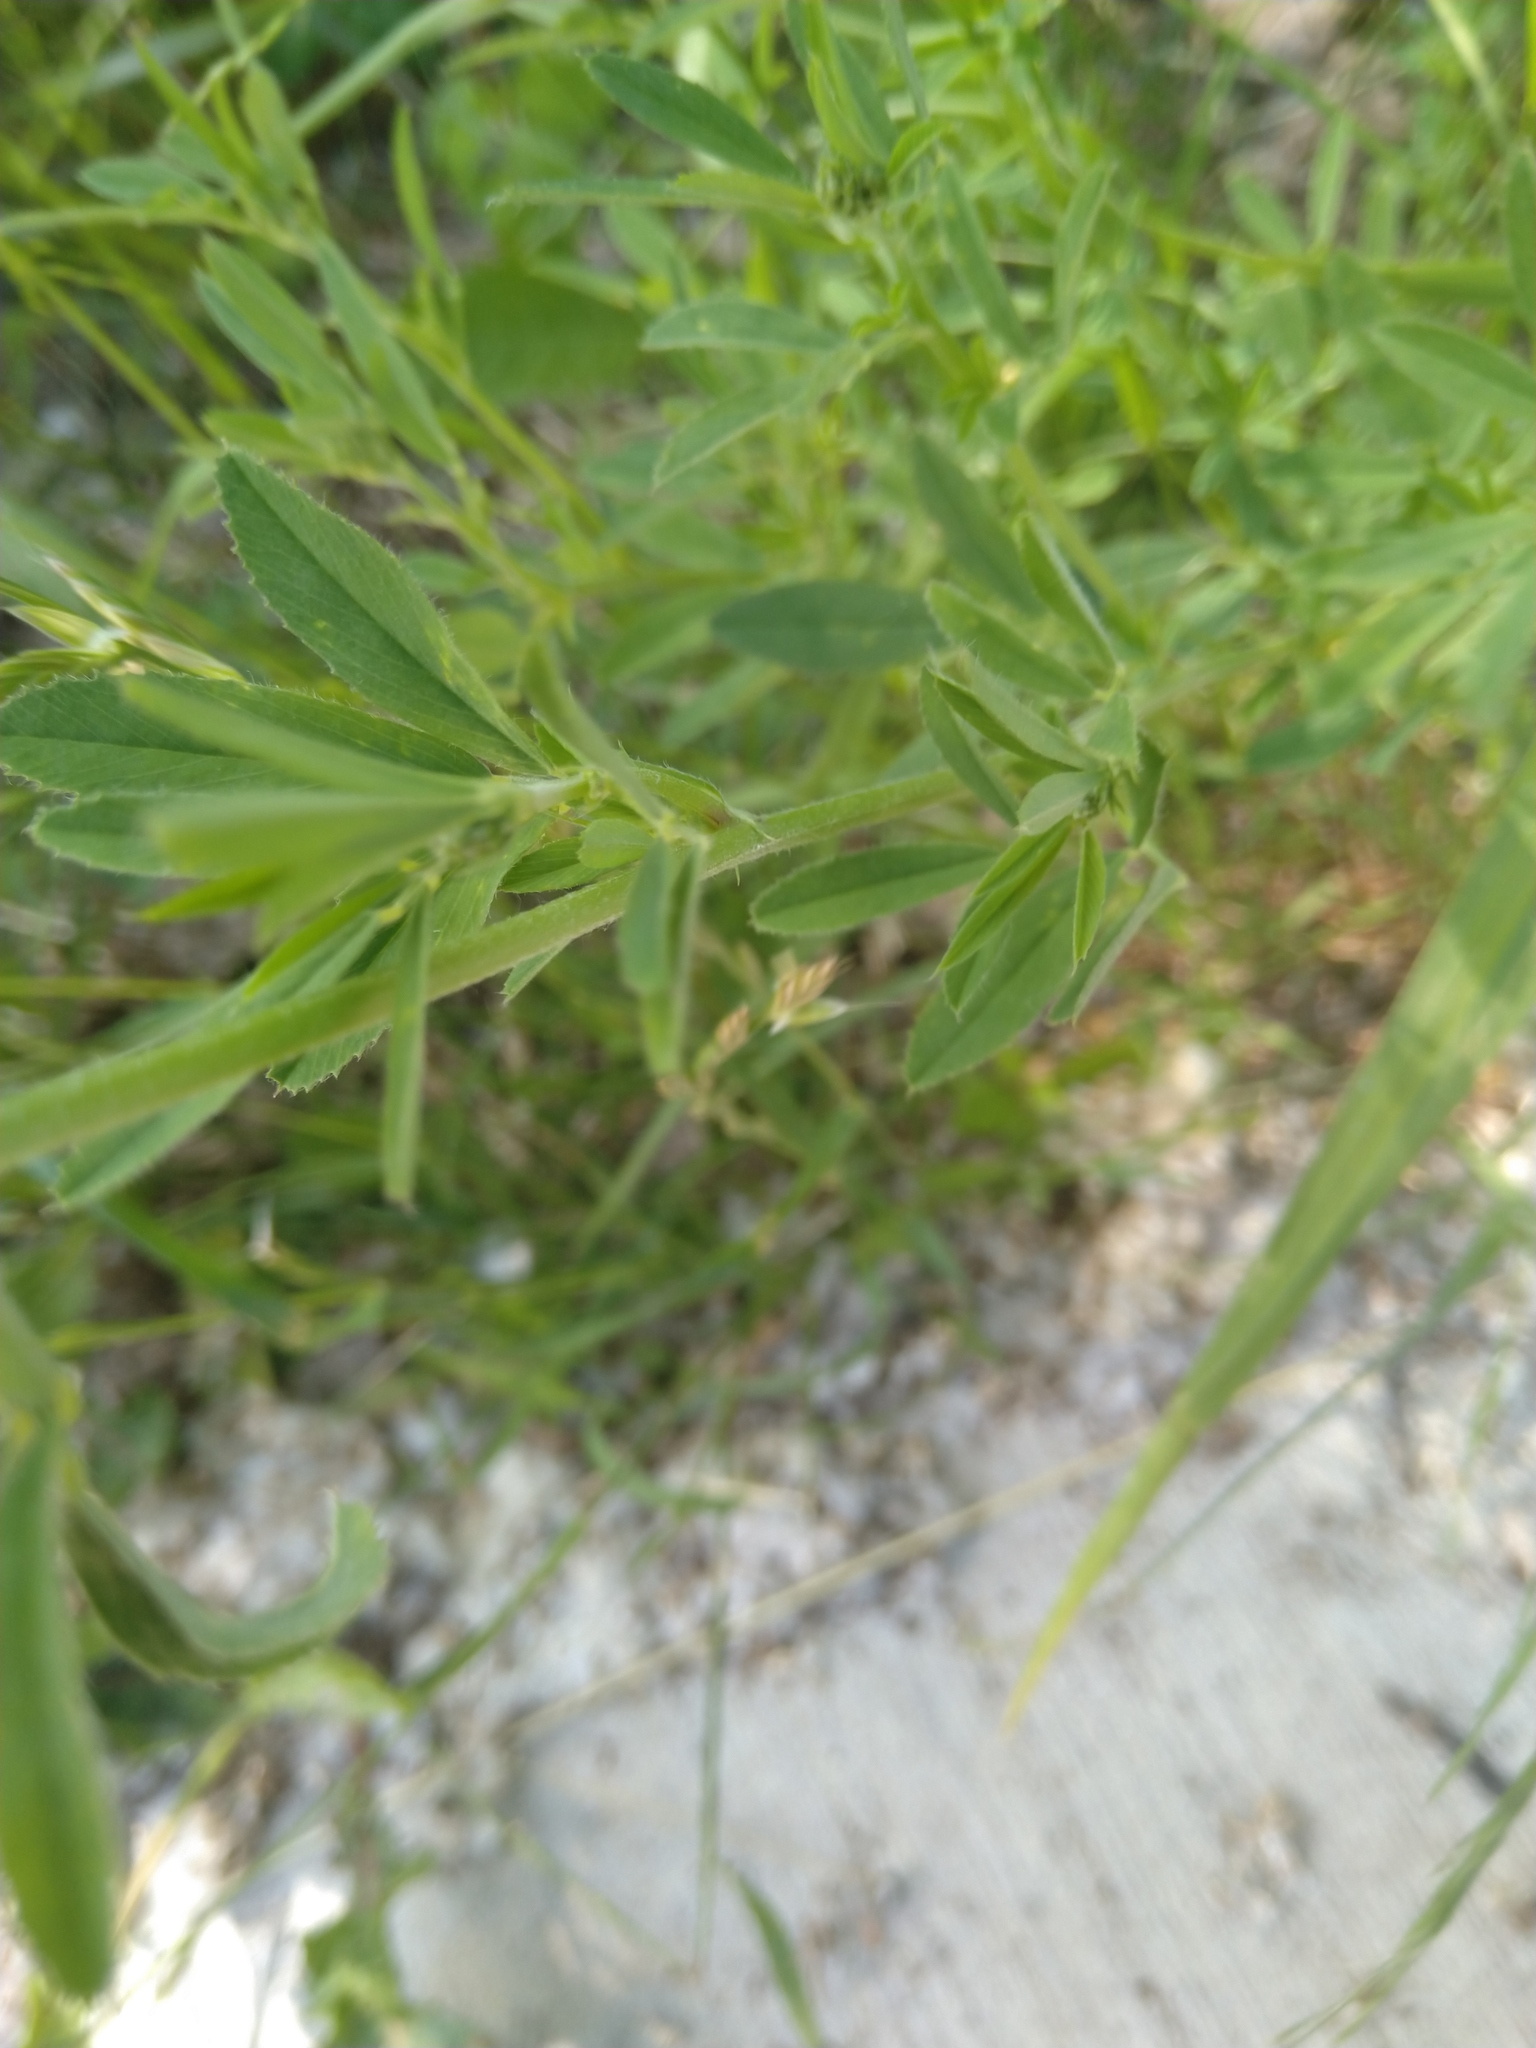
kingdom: Plantae
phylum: Tracheophyta
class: Magnoliopsida
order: Fabales
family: Fabaceae
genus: Medicago
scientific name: Medicago sativa
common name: Alfalfa
